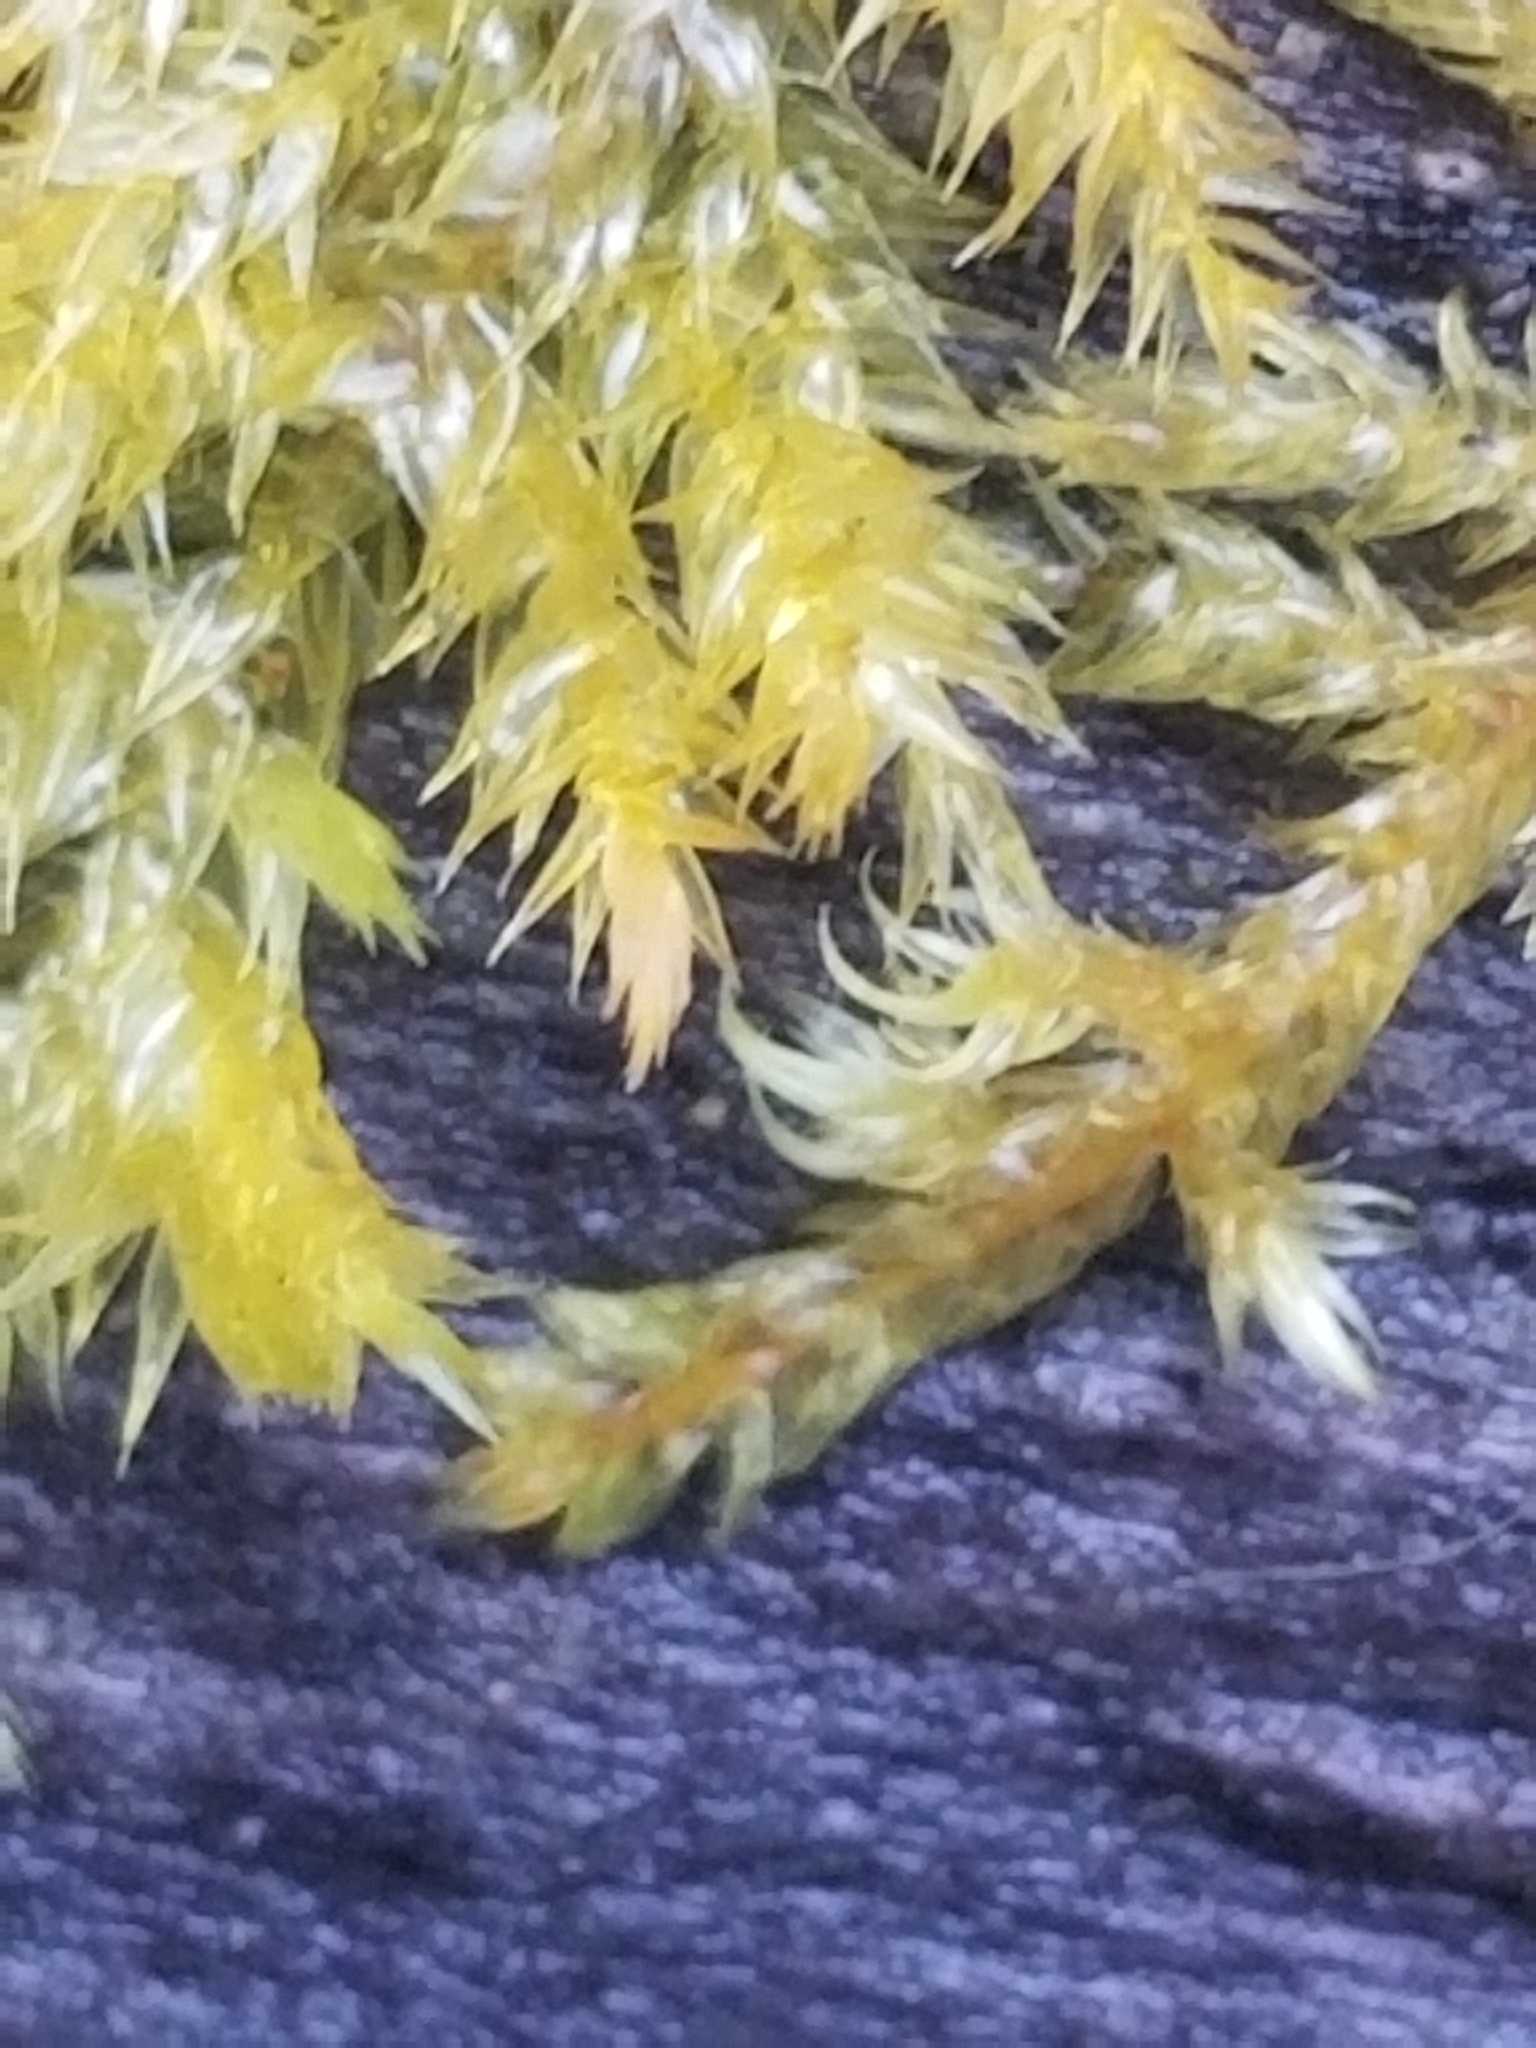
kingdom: Plantae
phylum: Bryophyta
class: Bryopsida
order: Hypnales
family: Callicladiaceae
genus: Callicladium
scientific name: Callicladium haldanianum
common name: Beautiful branch moss
